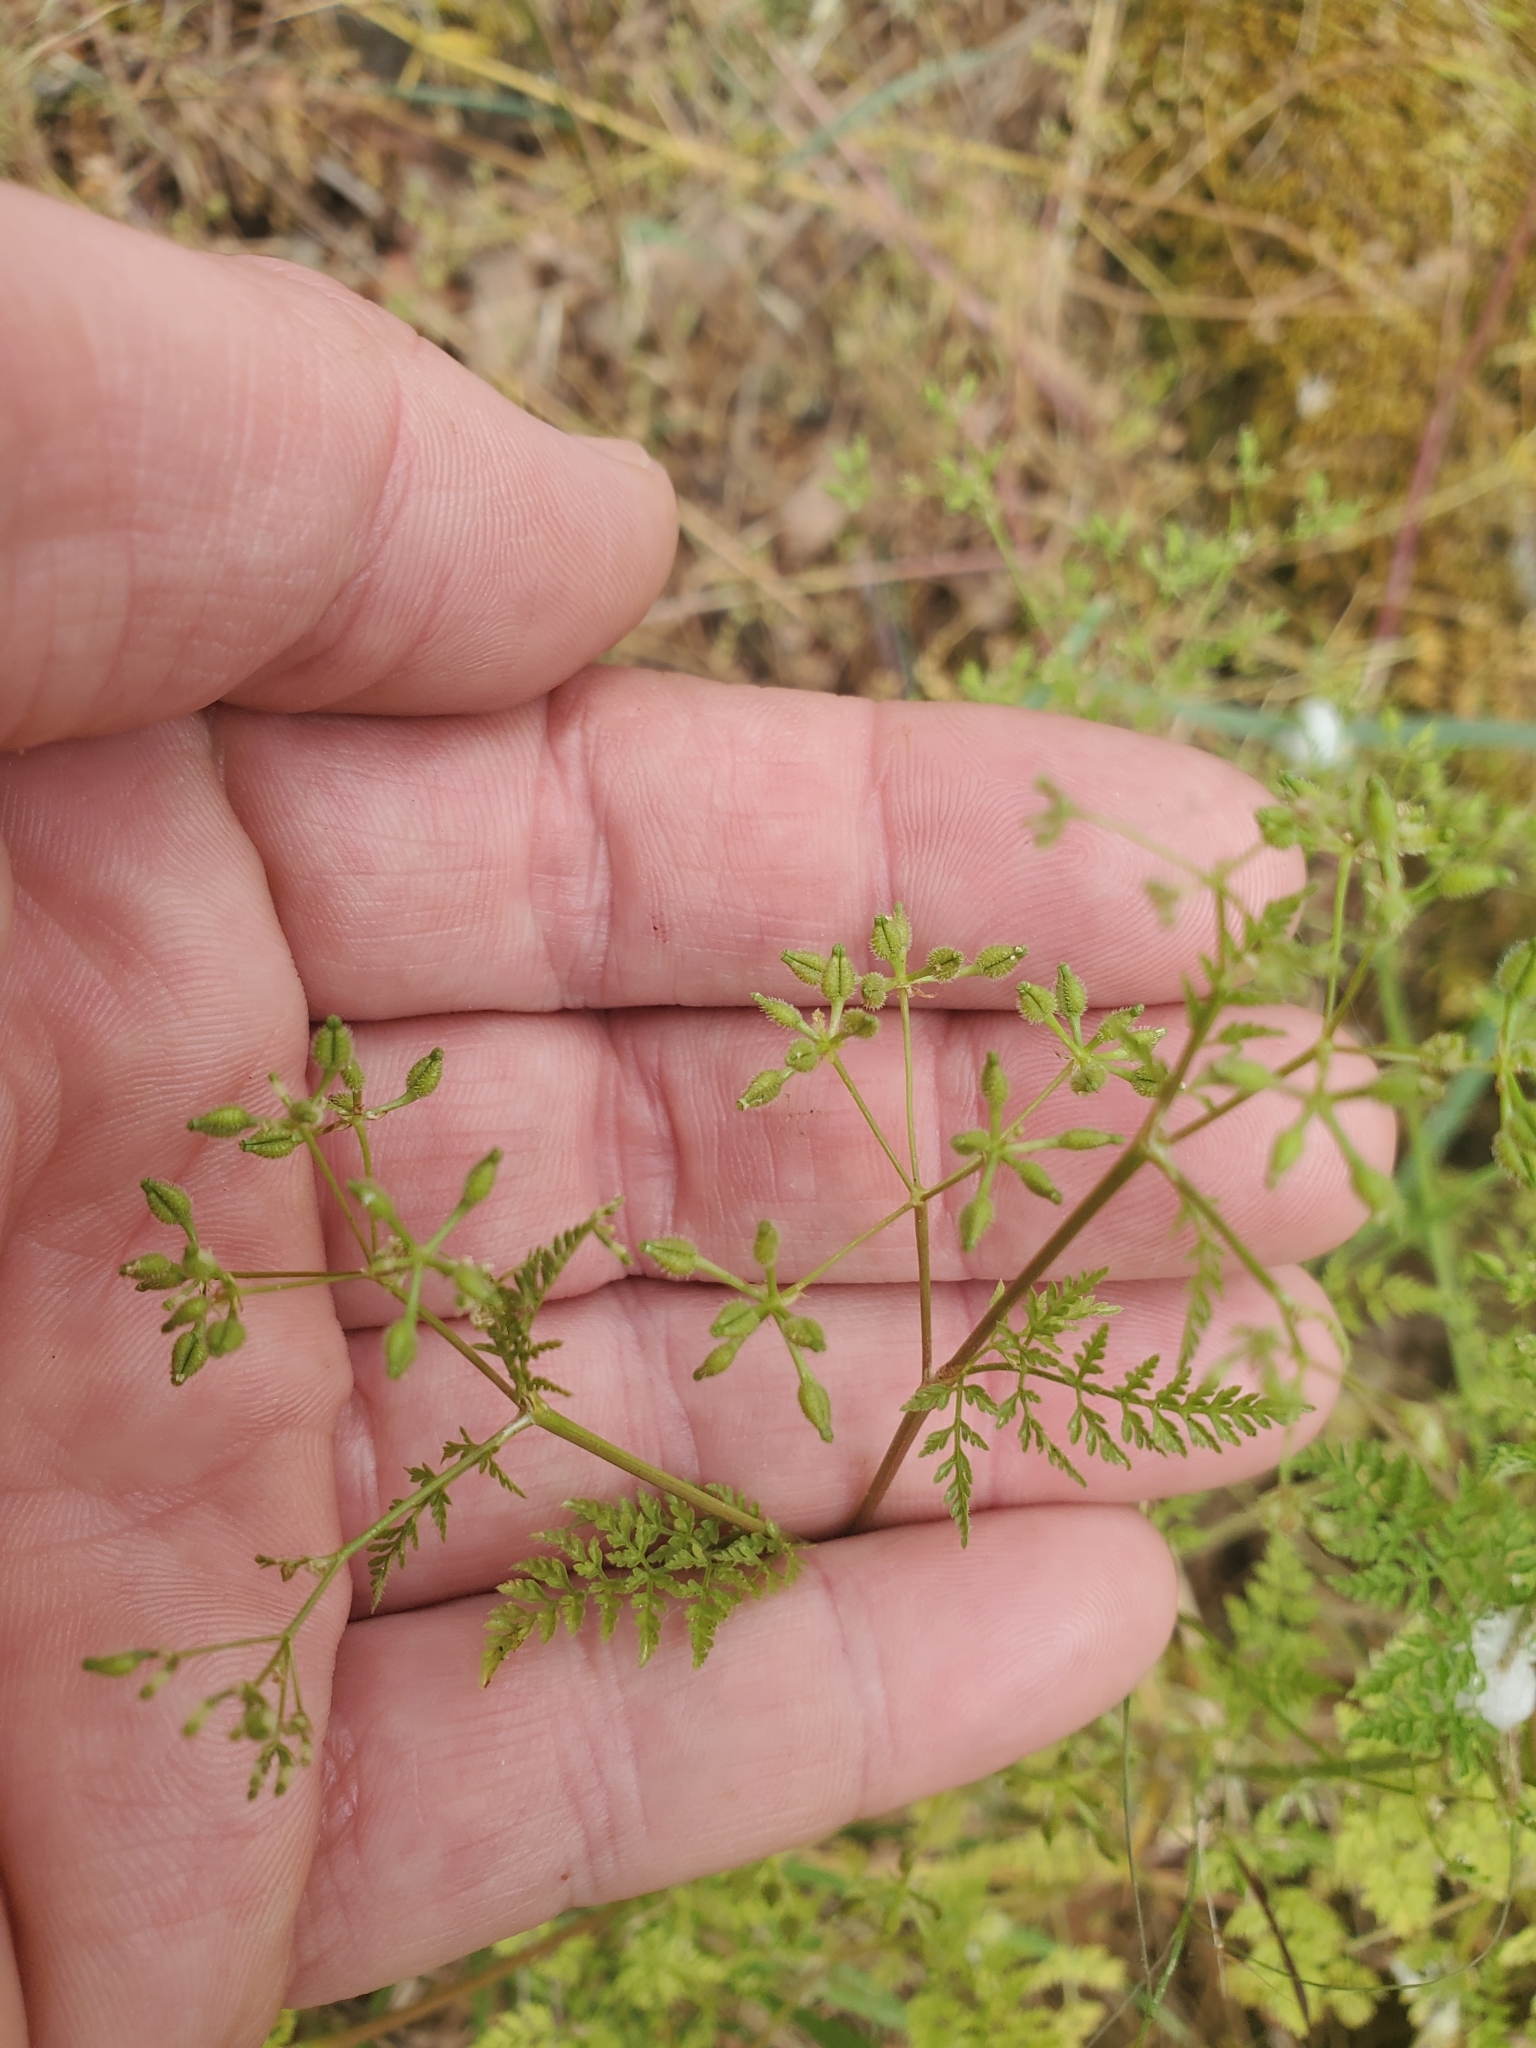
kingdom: Plantae
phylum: Tracheophyta
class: Magnoliopsida
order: Apiales
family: Apiaceae
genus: Anthriscus
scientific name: Anthriscus caucalis
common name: Bur chervil
